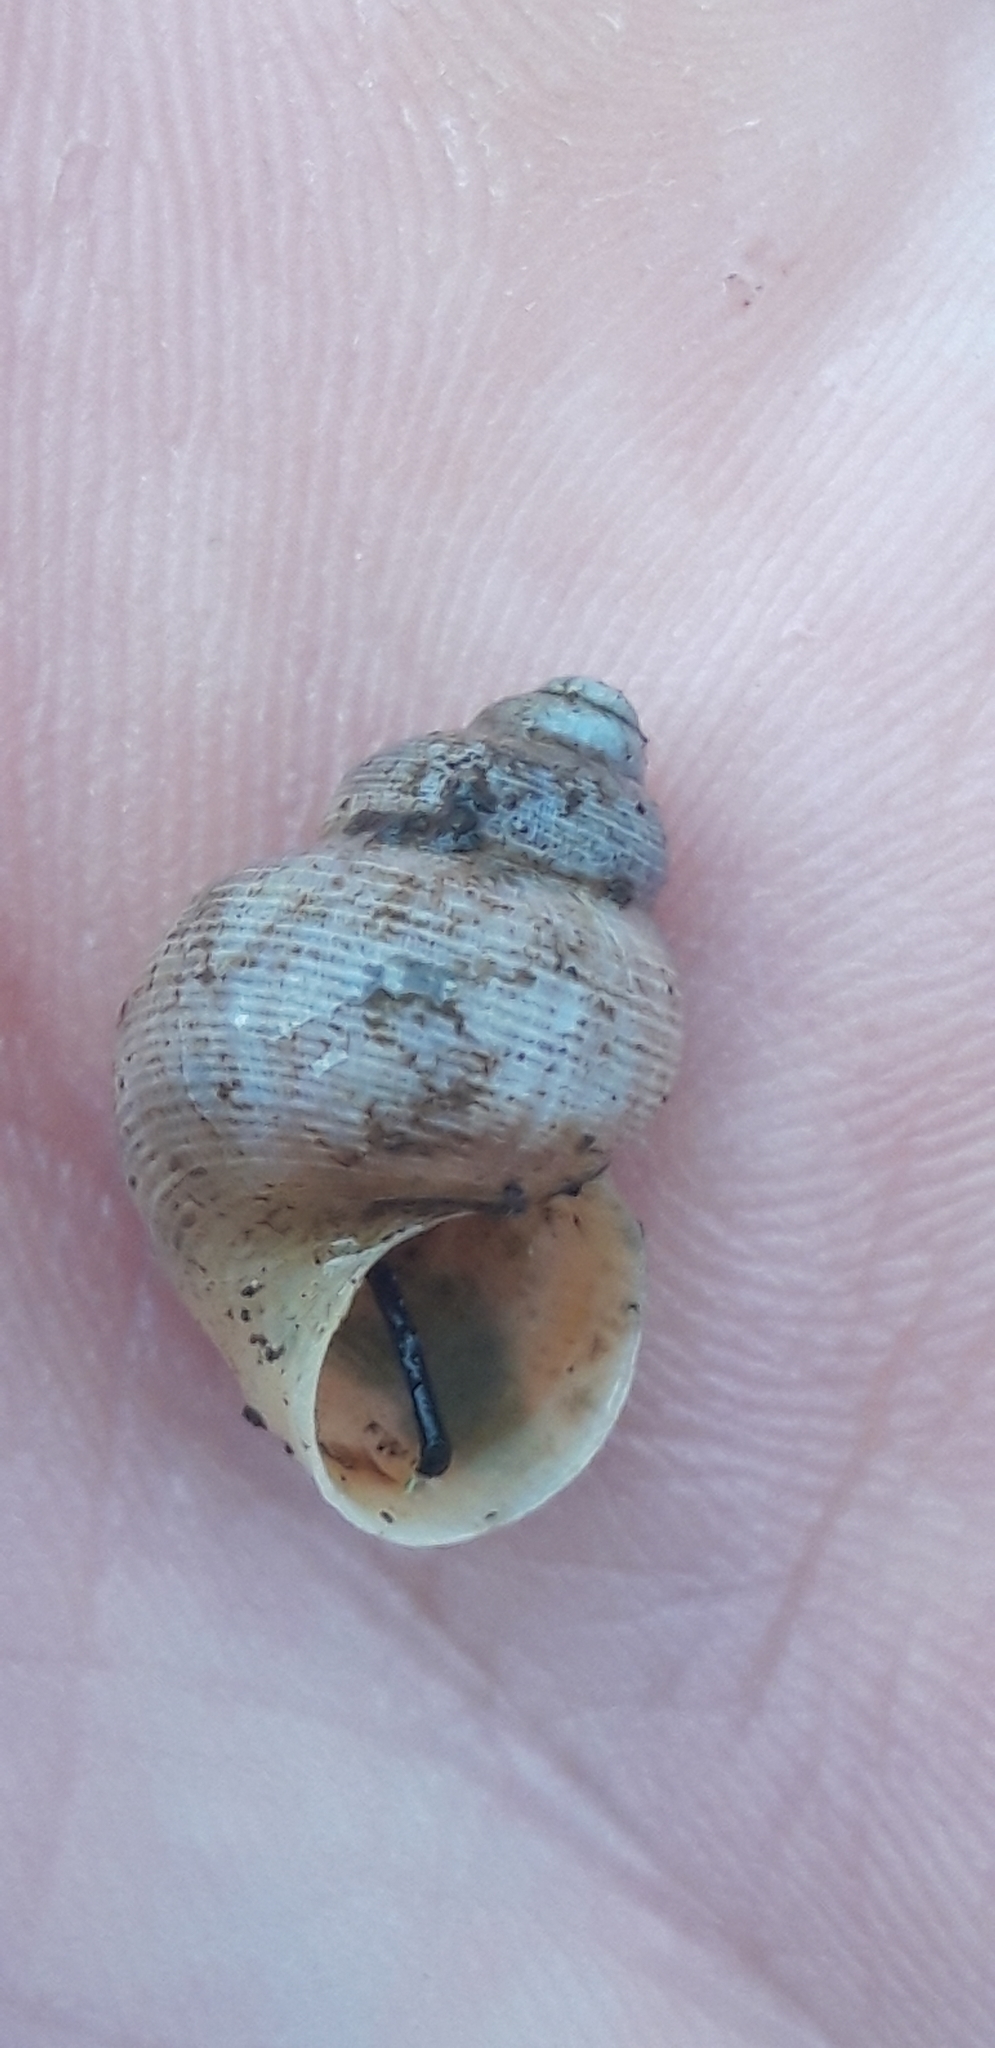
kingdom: Animalia
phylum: Mollusca
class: Gastropoda
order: Littorinimorpha
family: Pomatiidae
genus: Pomatias
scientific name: Pomatias elegans
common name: Red-mouthed snail
